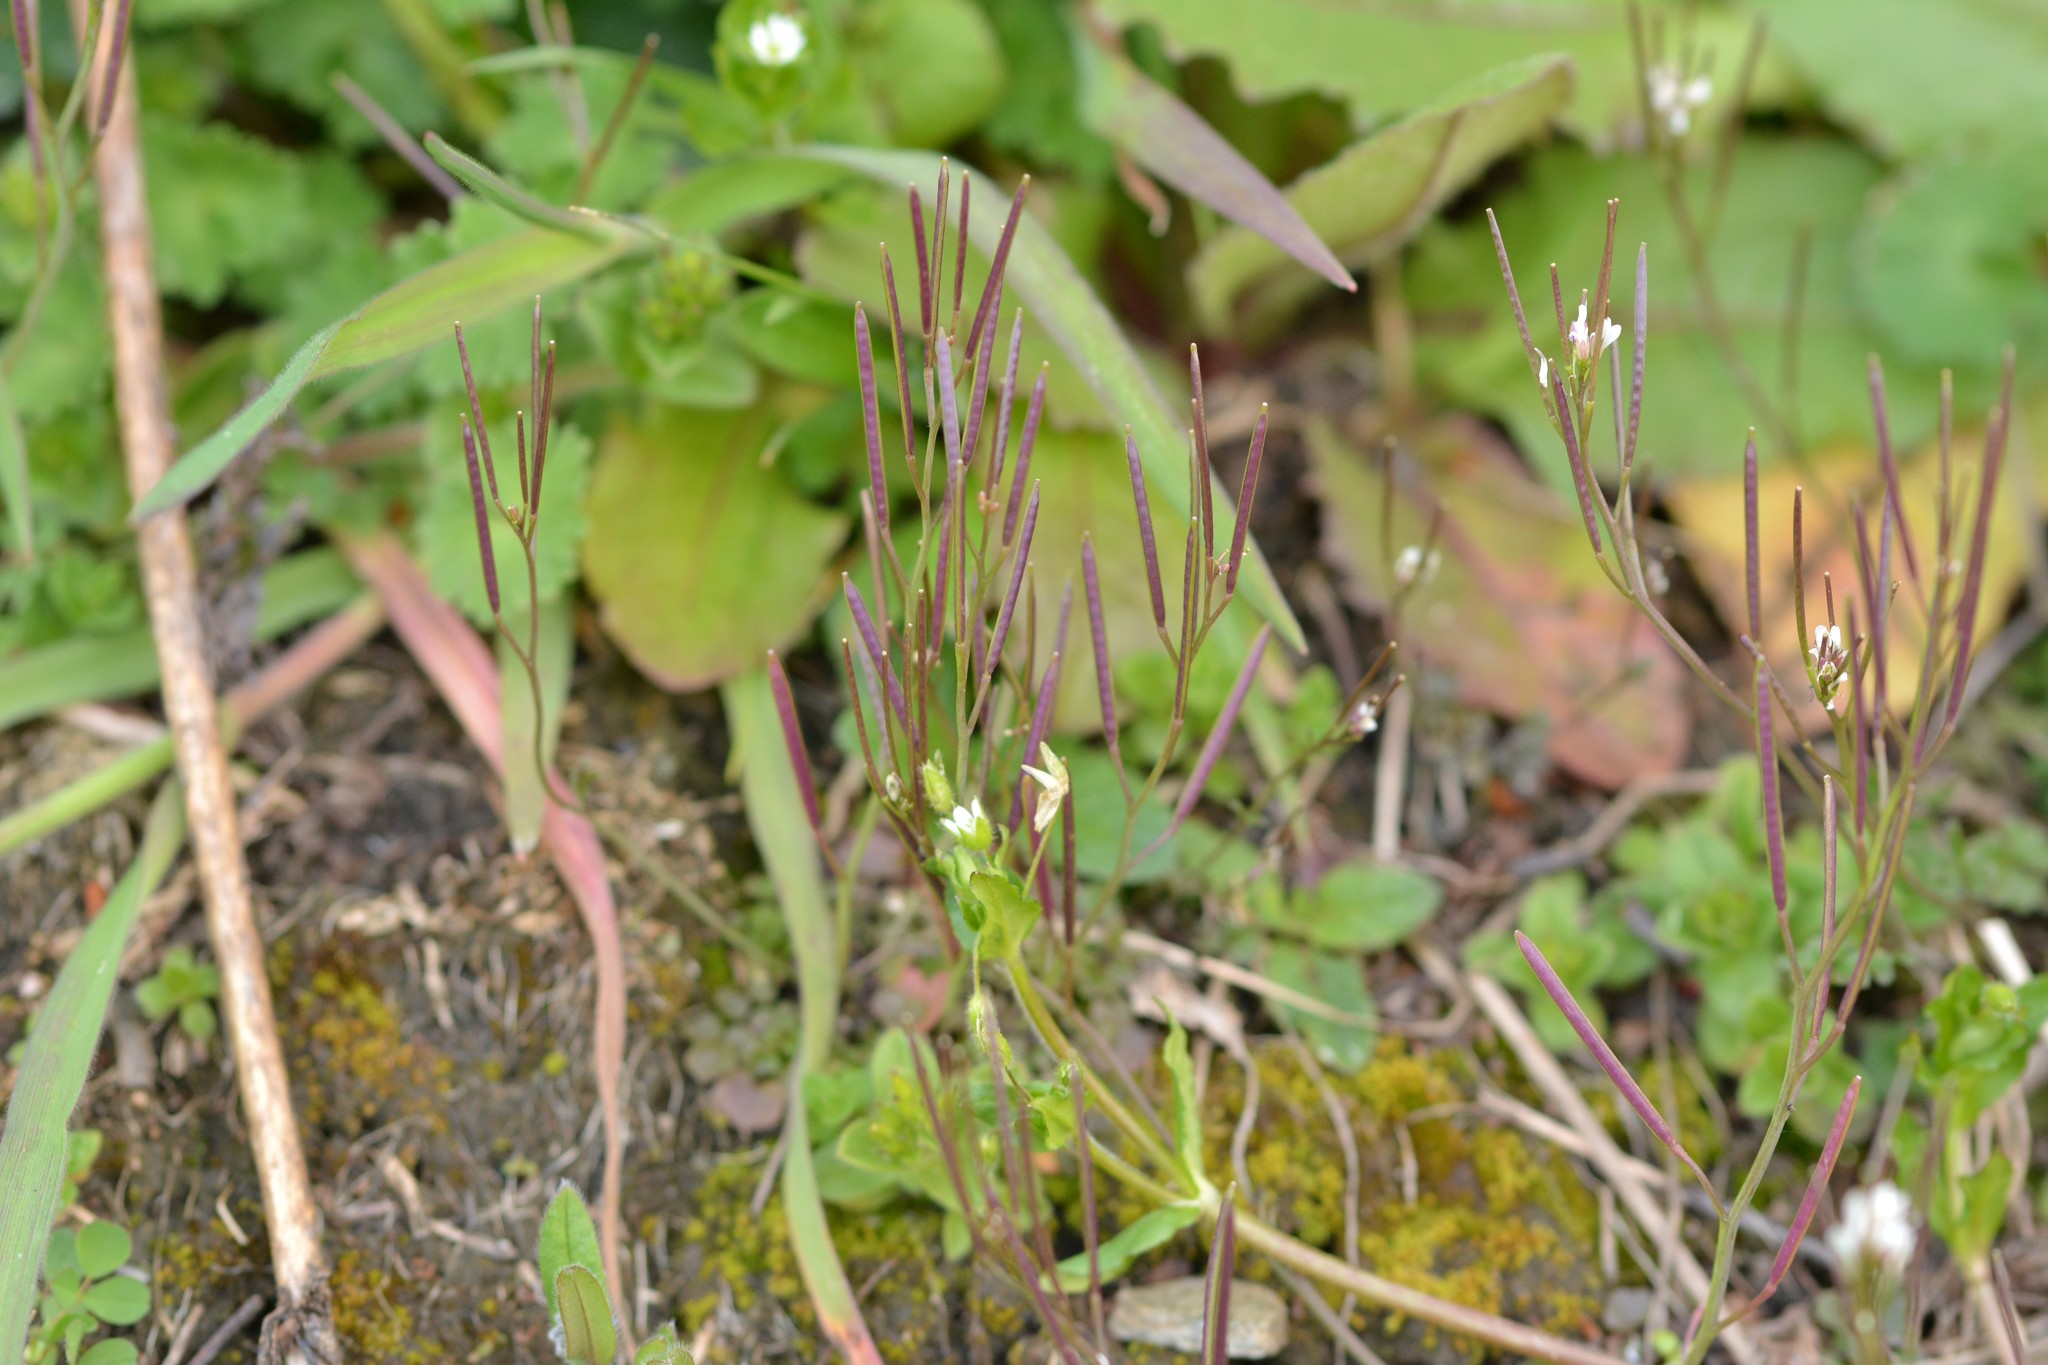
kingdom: Plantae
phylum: Tracheophyta
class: Magnoliopsida
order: Brassicales
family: Brassicaceae
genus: Cardamine
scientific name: Cardamine hirsuta
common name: Hairy bittercress
